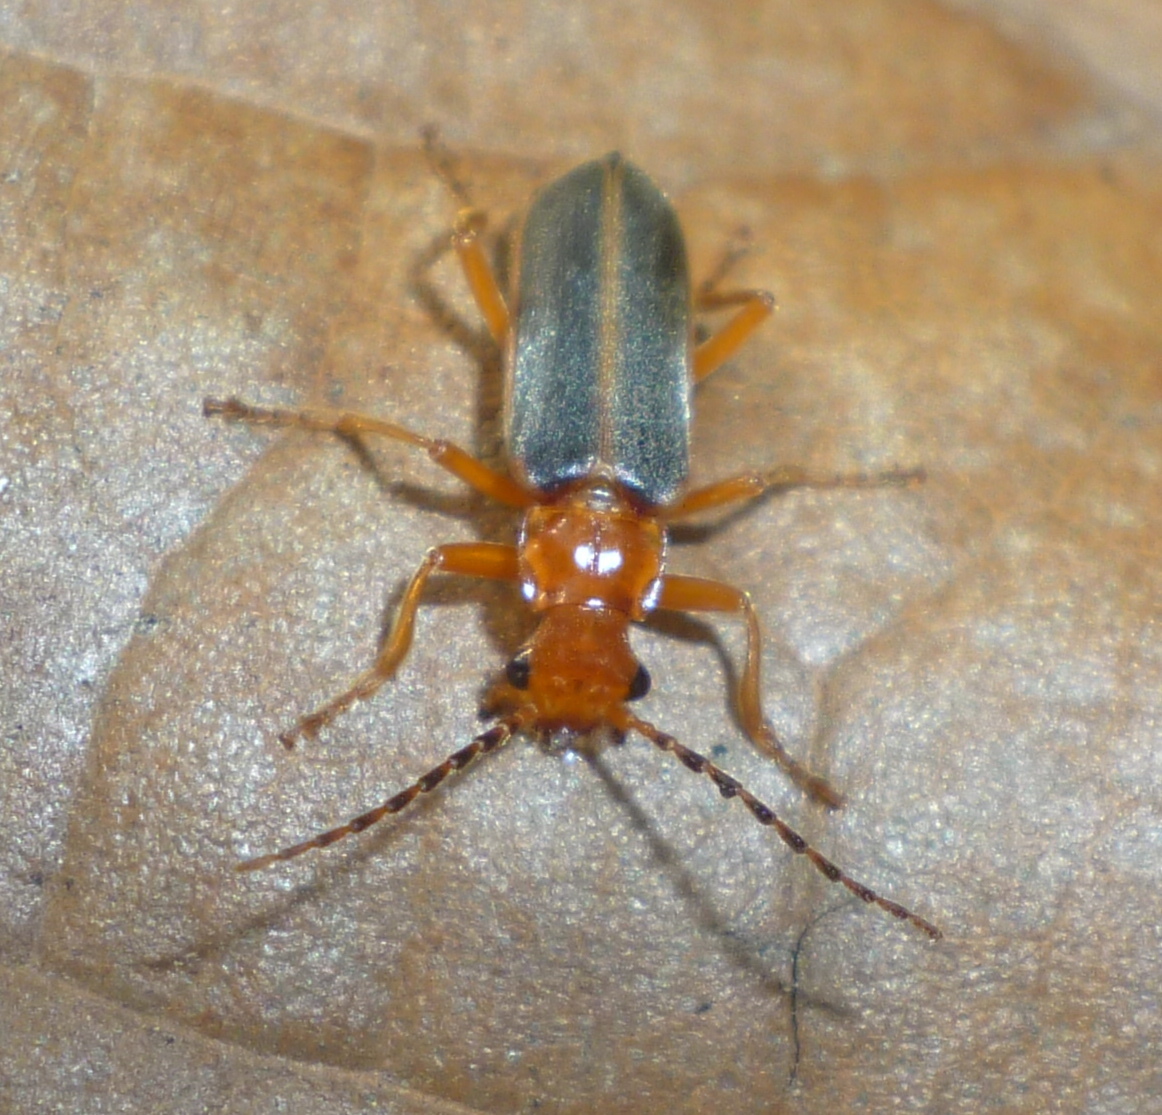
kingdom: Animalia
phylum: Arthropoda
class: Insecta
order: Coleoptera
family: Cantharidae
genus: Podabrus
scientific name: Podabrus tomentosus
